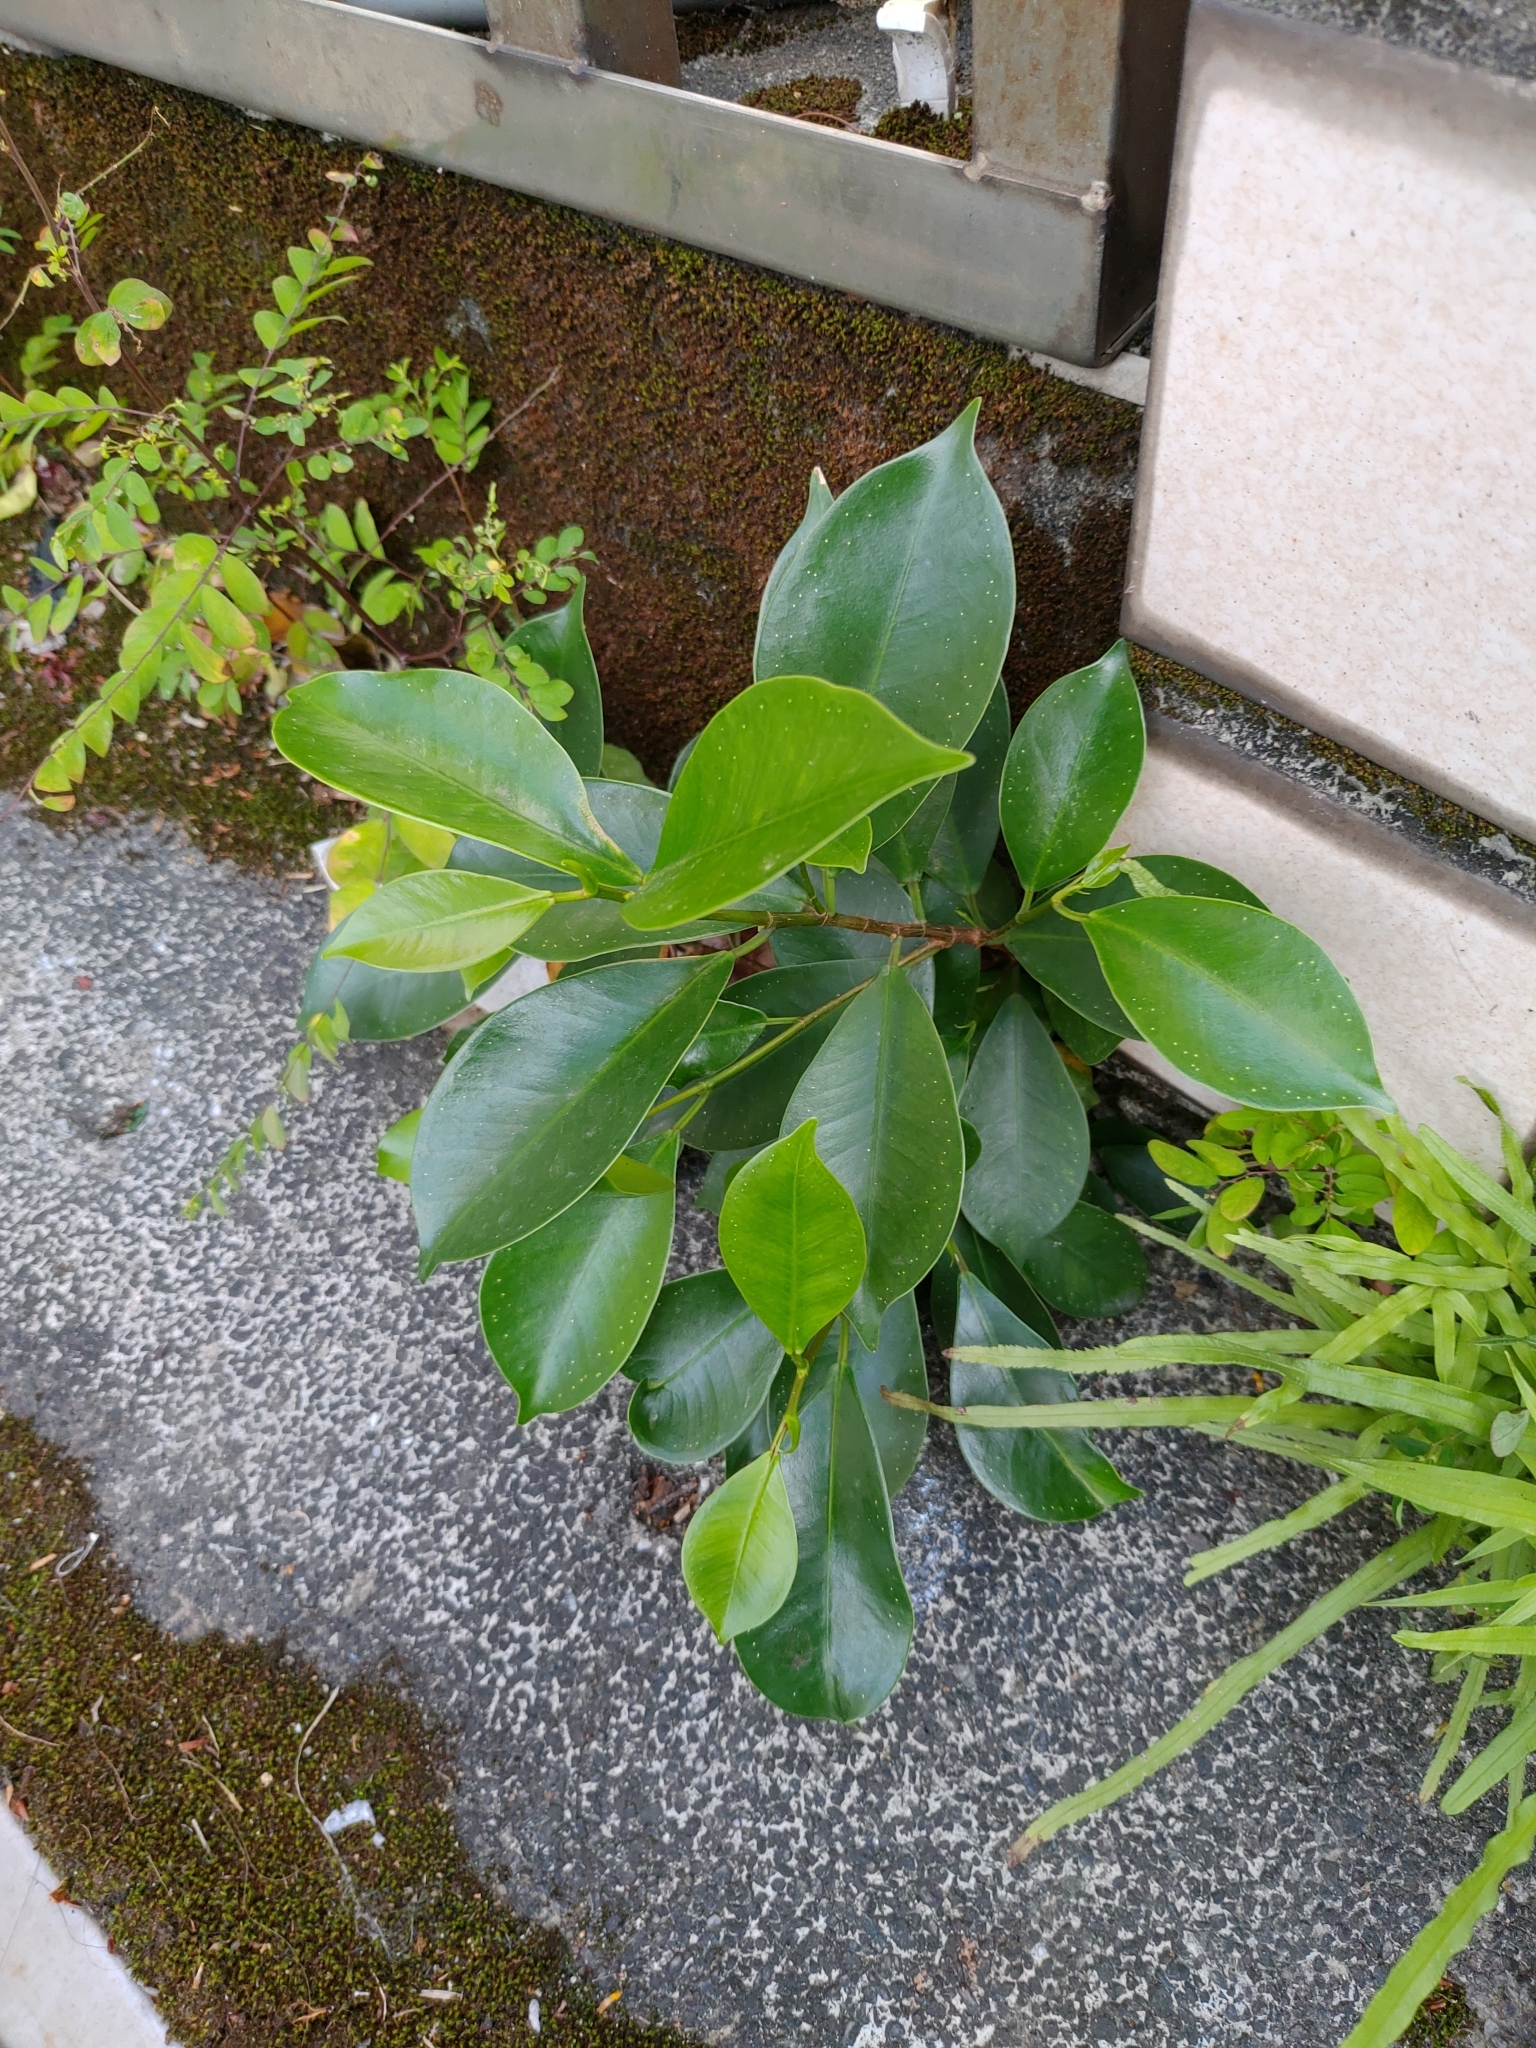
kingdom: Plantae
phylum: Tracheophyta
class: Magnoliopsida
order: Rosales
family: Moraceae
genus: Ficus
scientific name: Ficus microcarpa
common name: Chinese banyan
